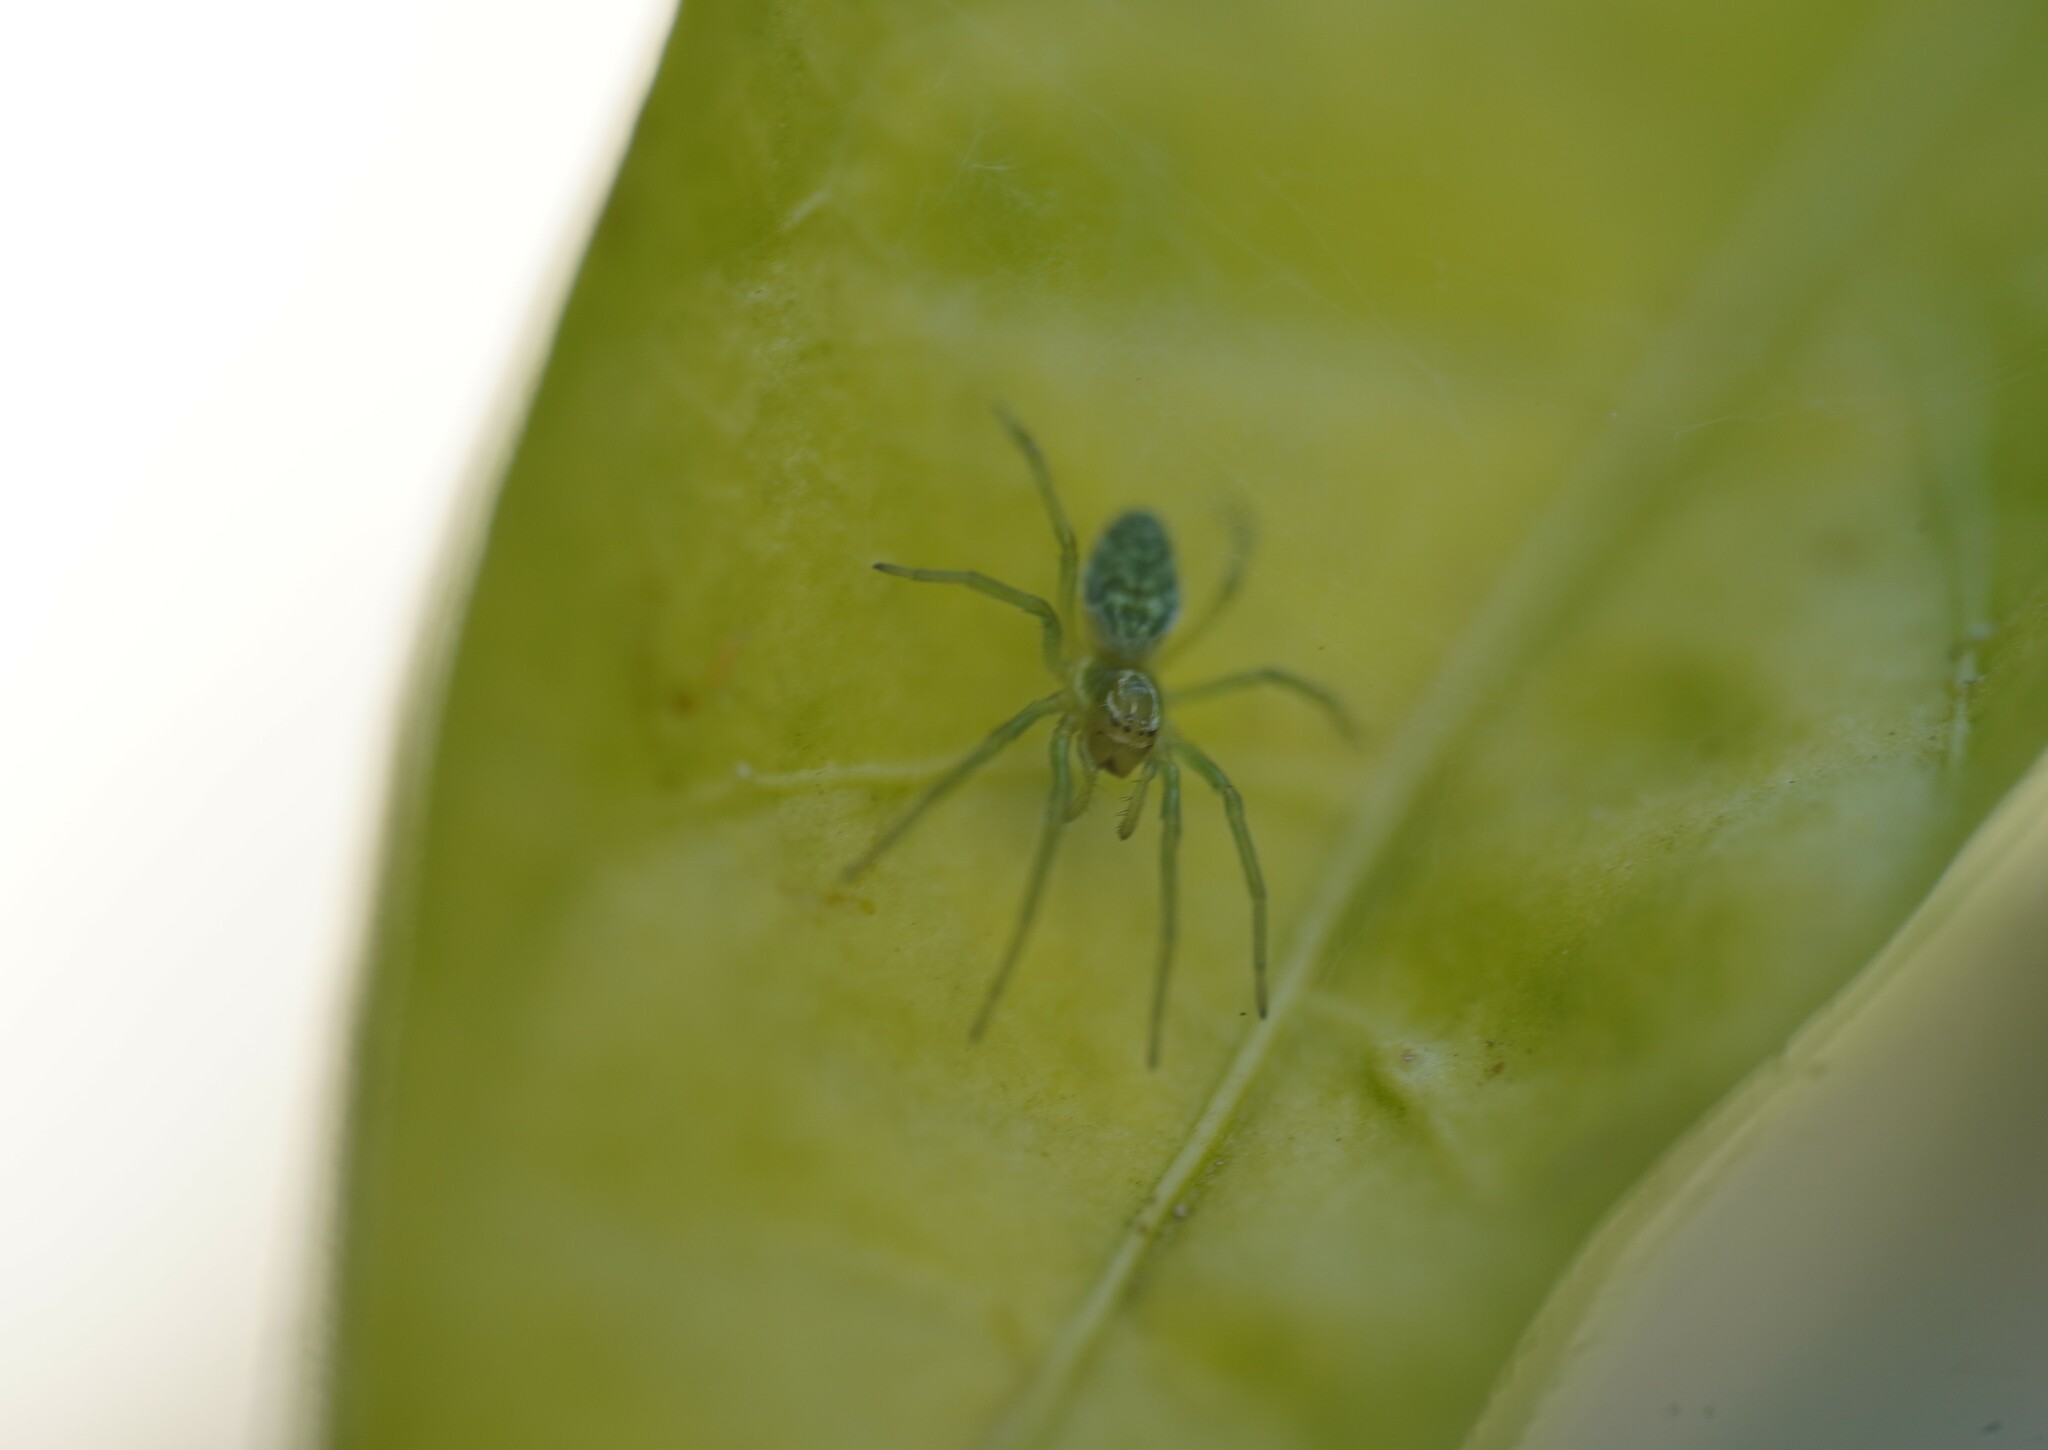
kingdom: Animalia
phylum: Arthropoda
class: Arachnida
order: Araneae
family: Dictynidae
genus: Nigma
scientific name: Nigma walckenaeri
